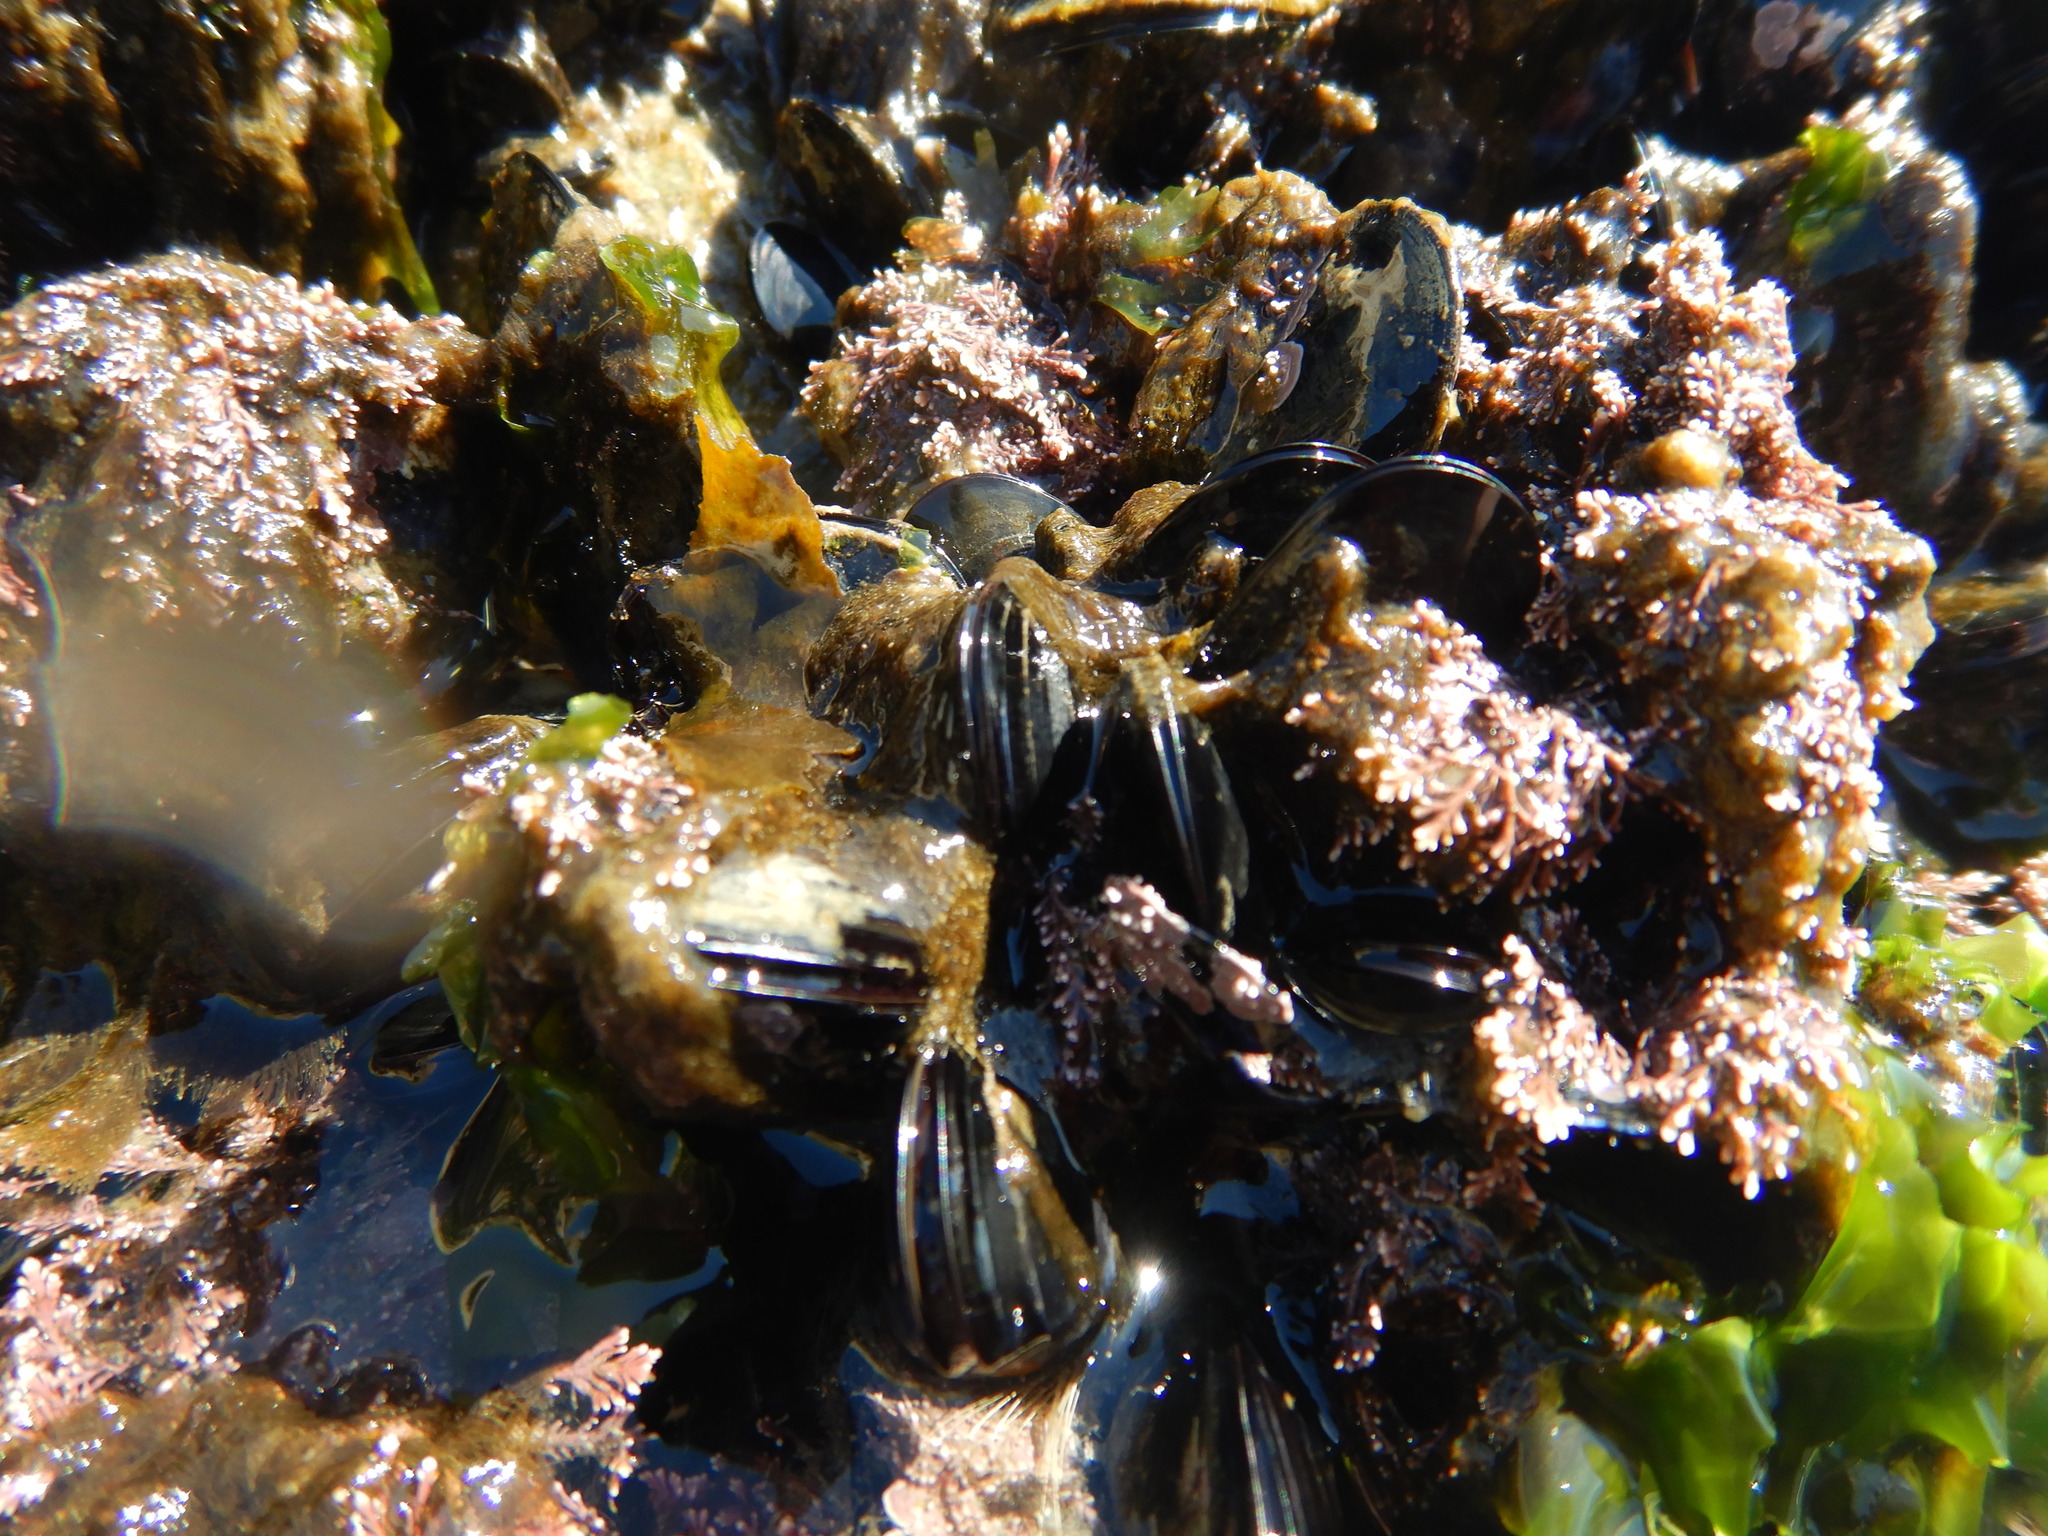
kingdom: Animalia
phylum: Mollusca
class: Bivalvia
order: Mytilida
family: Mytilidae
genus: Mytilus
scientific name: Mytilus galloprovincialis
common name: Mediterranean mussel
